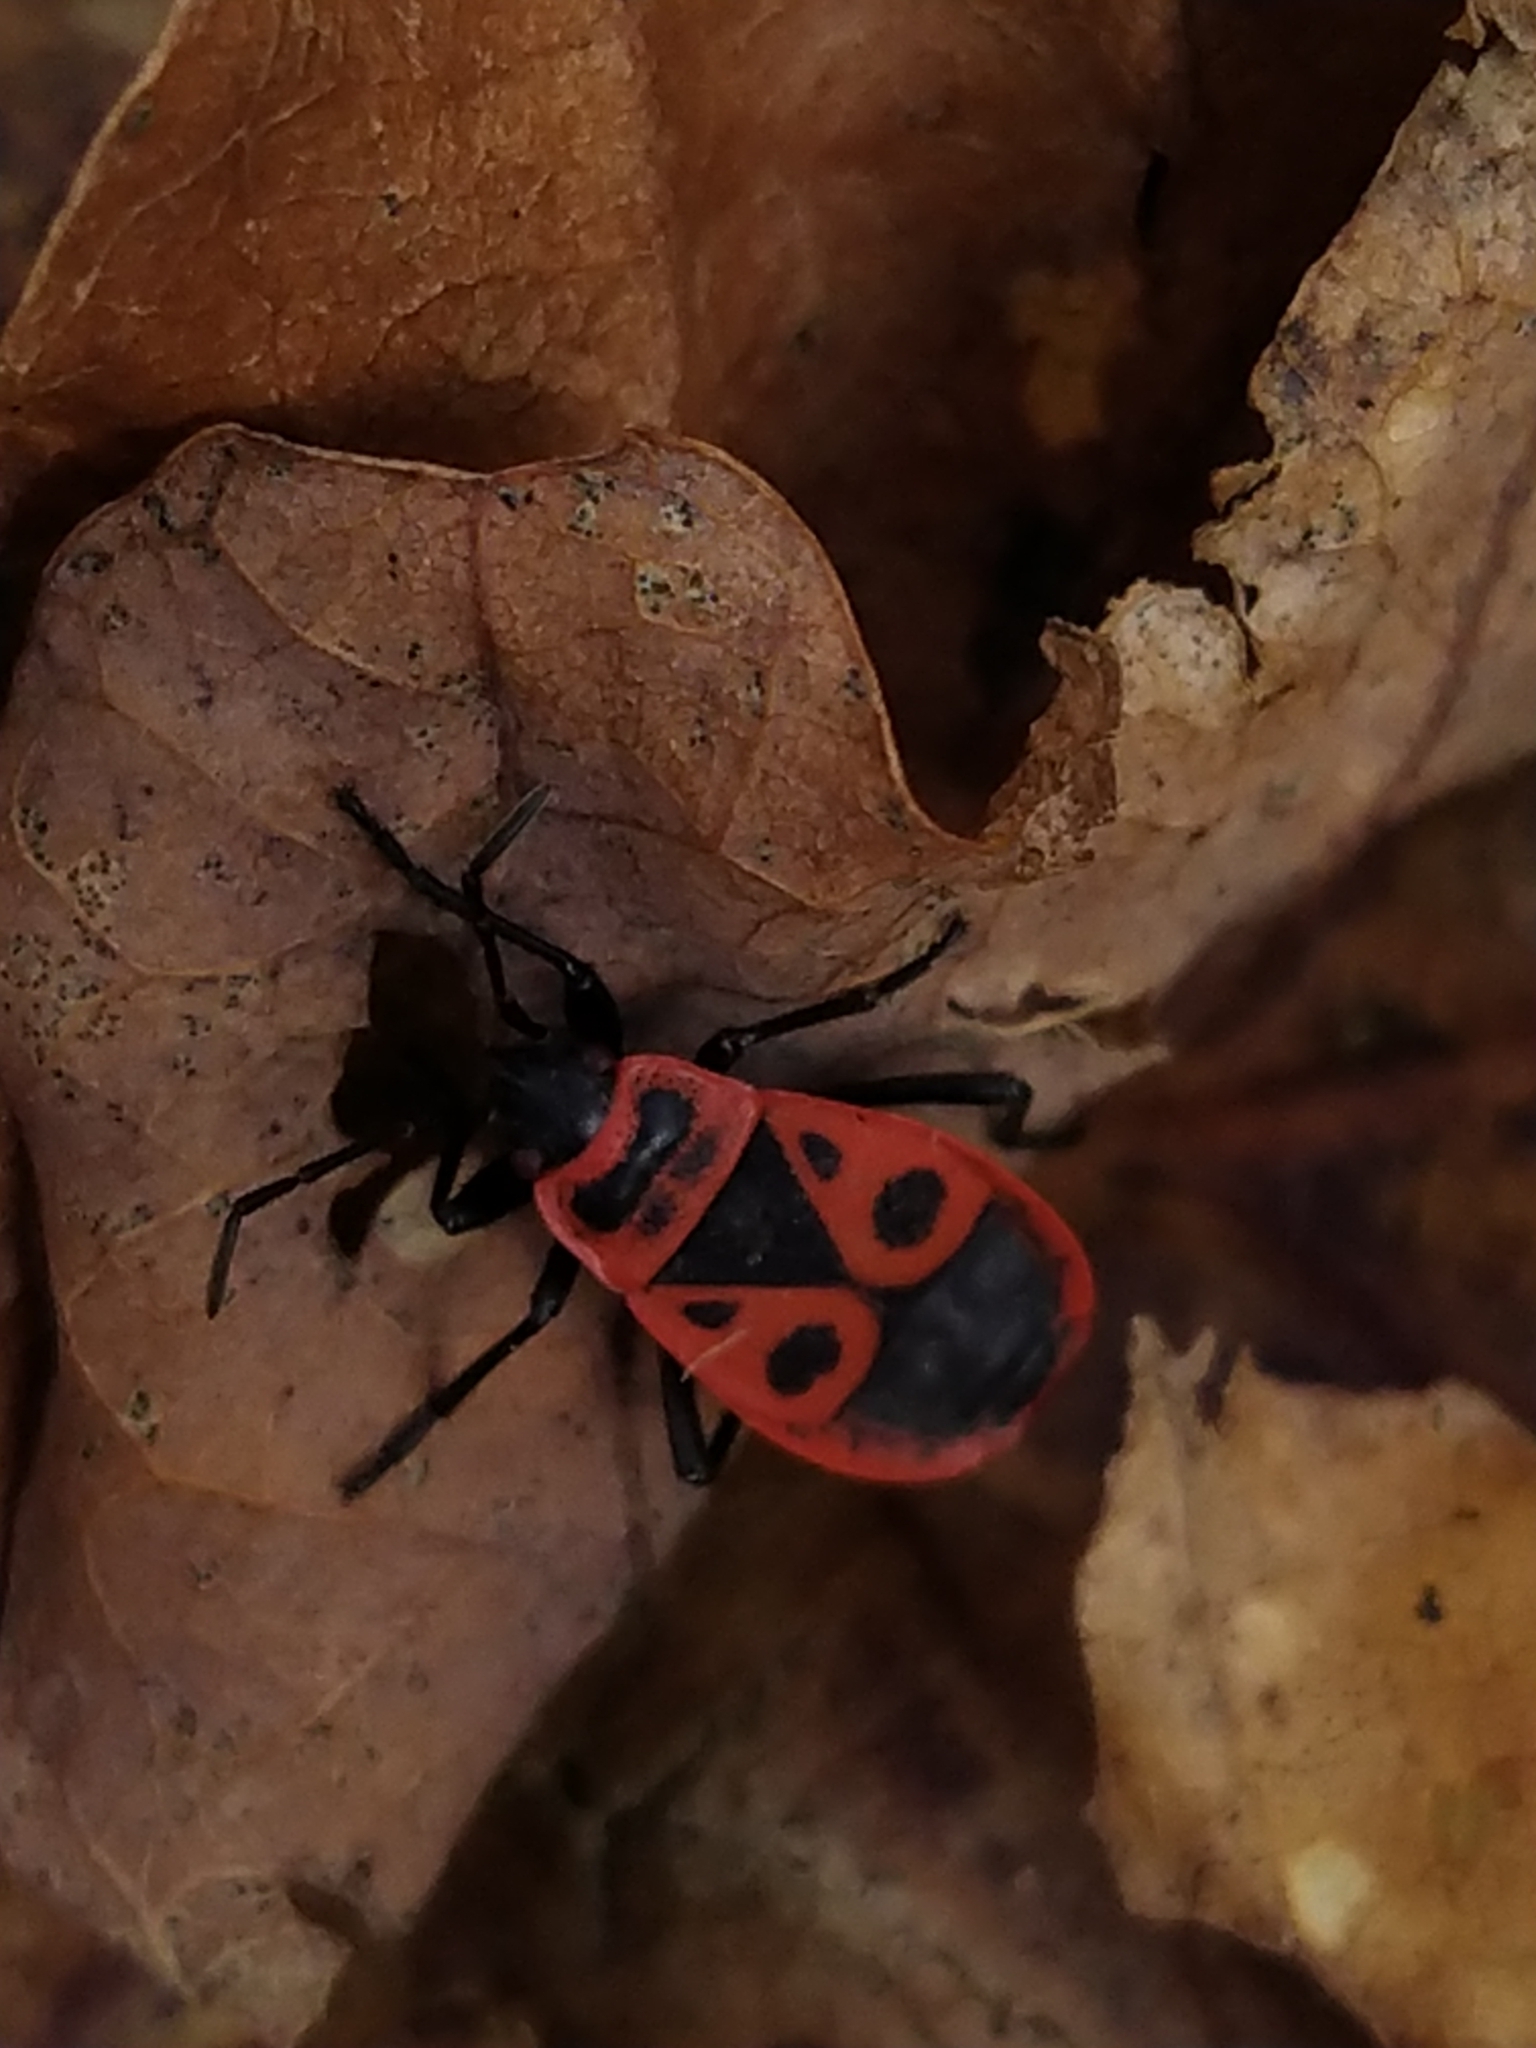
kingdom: Animalia
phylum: Arthropoda
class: Insecta
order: Hemiptera
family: Pyrrhocoridae
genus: Pyrrhocoris
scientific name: Pyrrhocoris apterus
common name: Firebug
